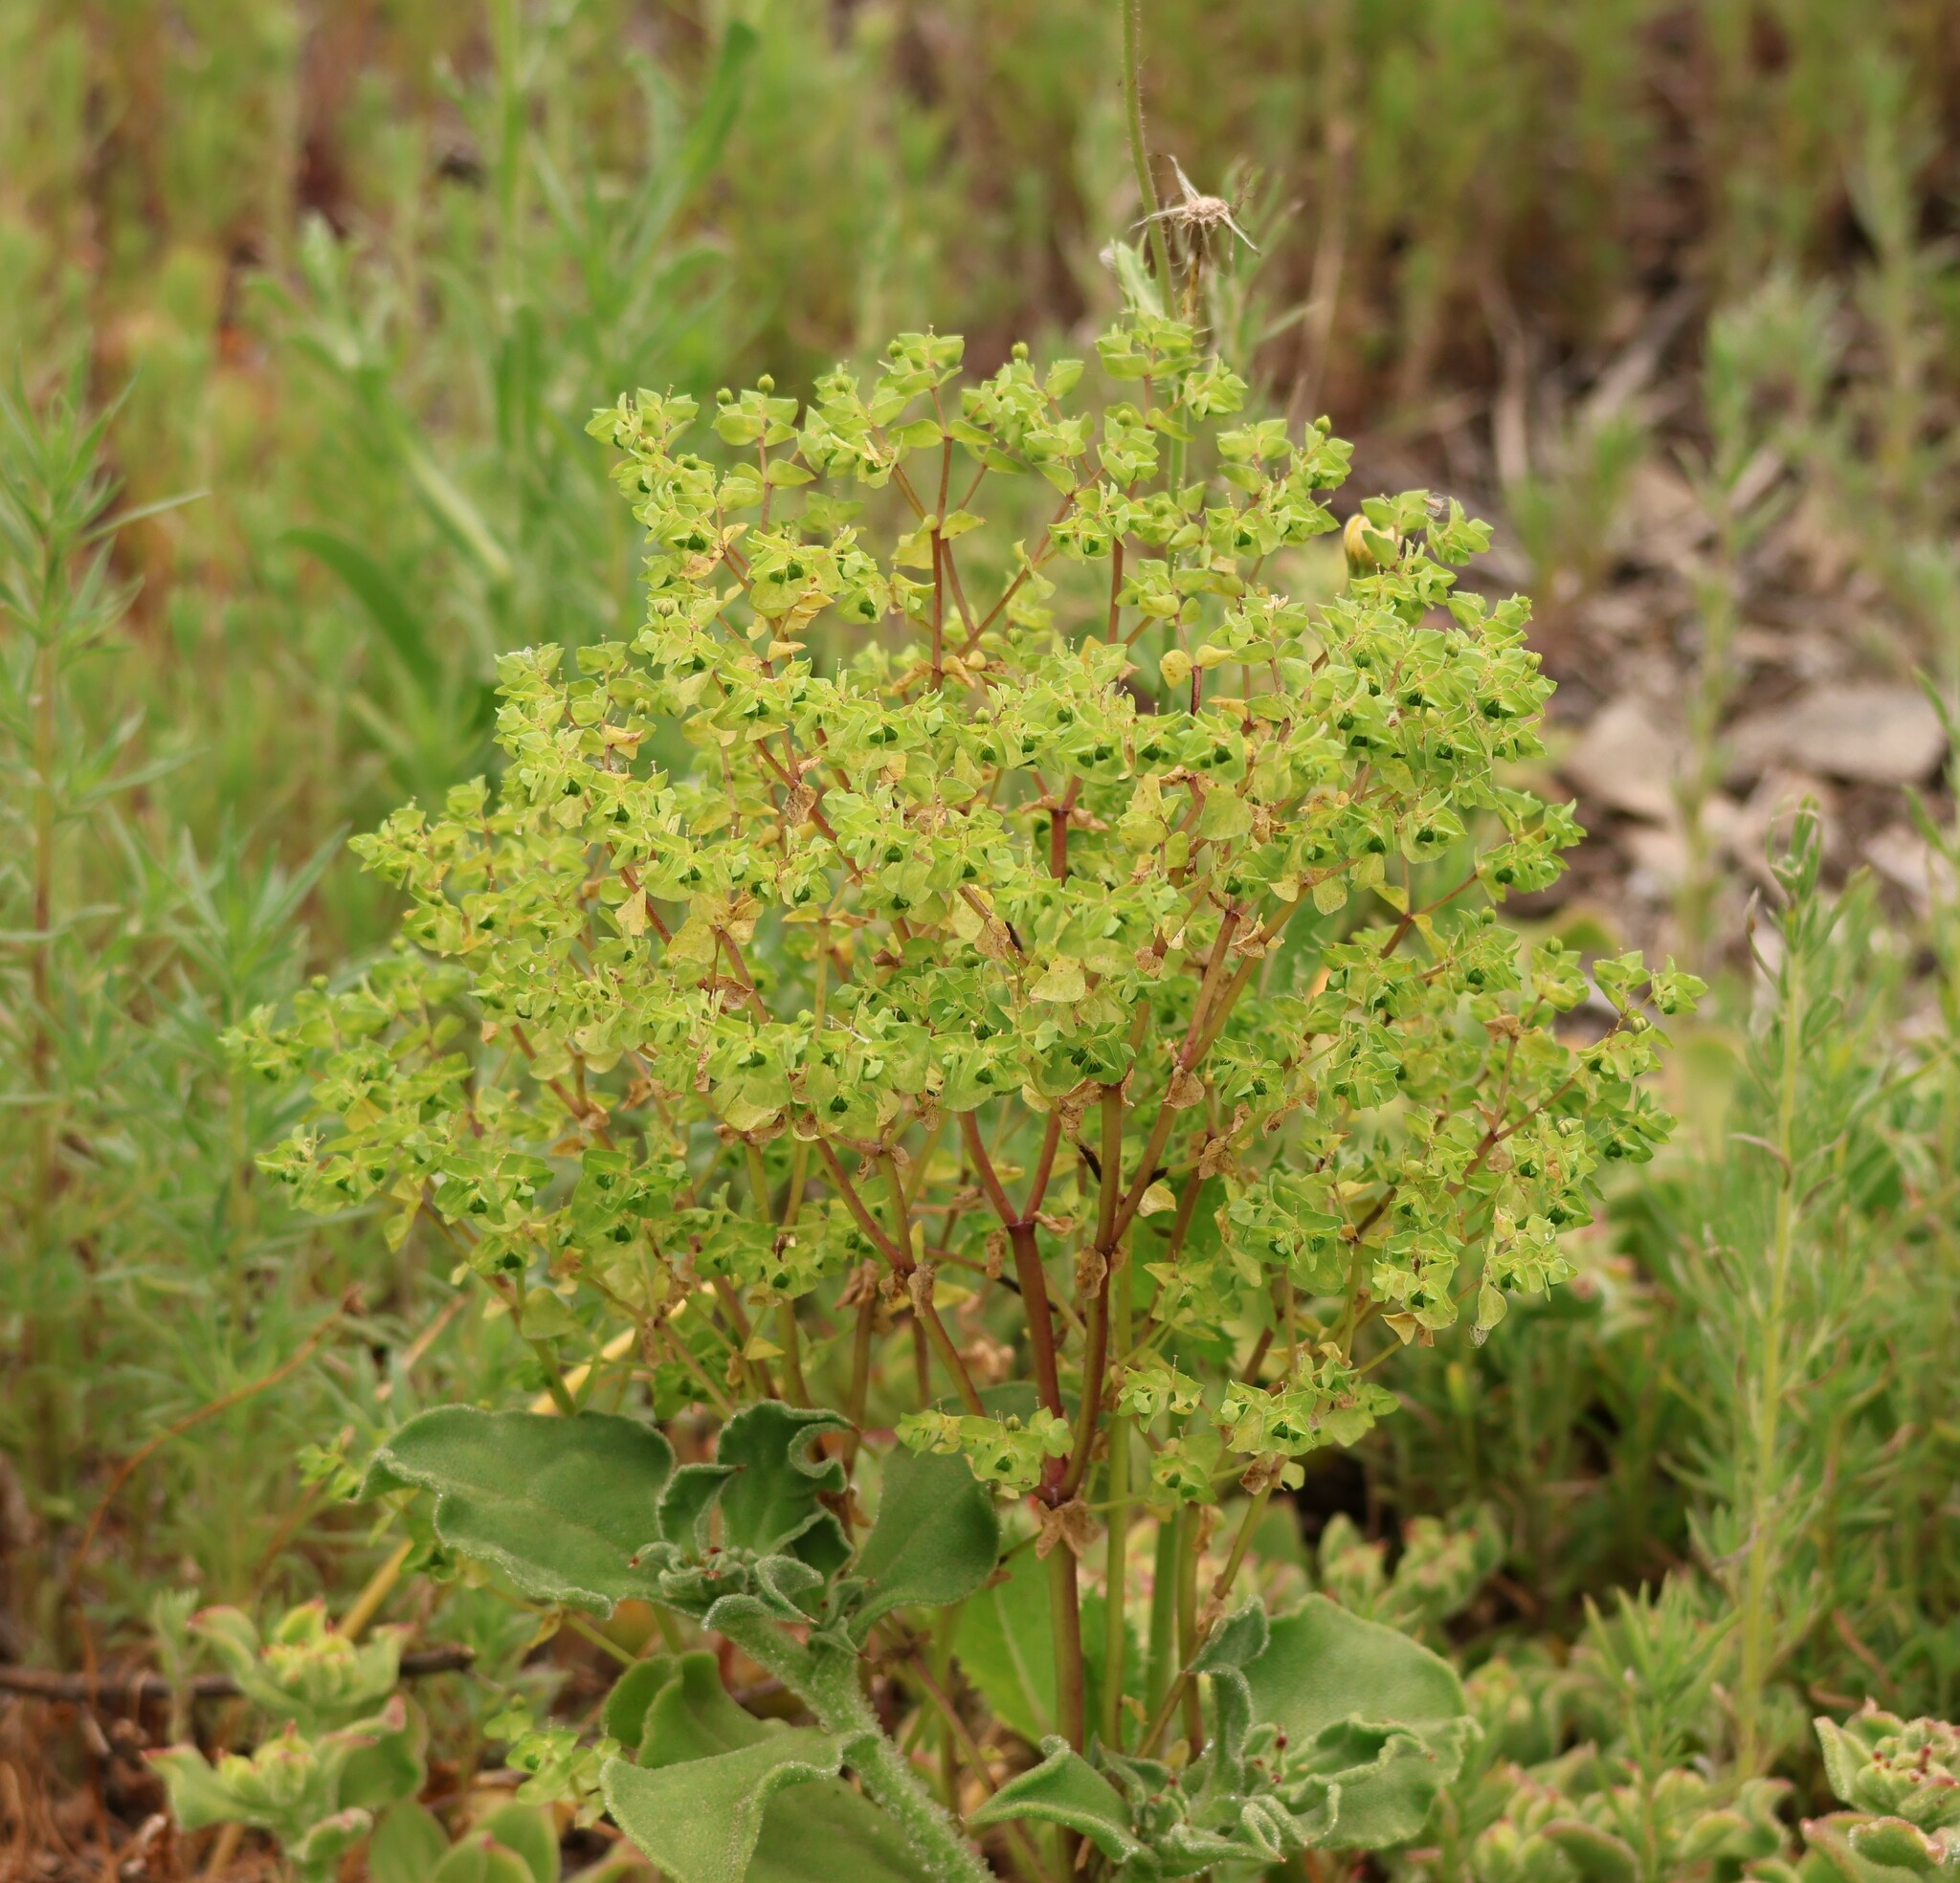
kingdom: Plantae
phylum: Tracheophyta
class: Magnoliopsida
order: Malpighiales
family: Euphorbiaceae
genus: Euphorbia
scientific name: Euphorbia peplus
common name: Petty spurge
